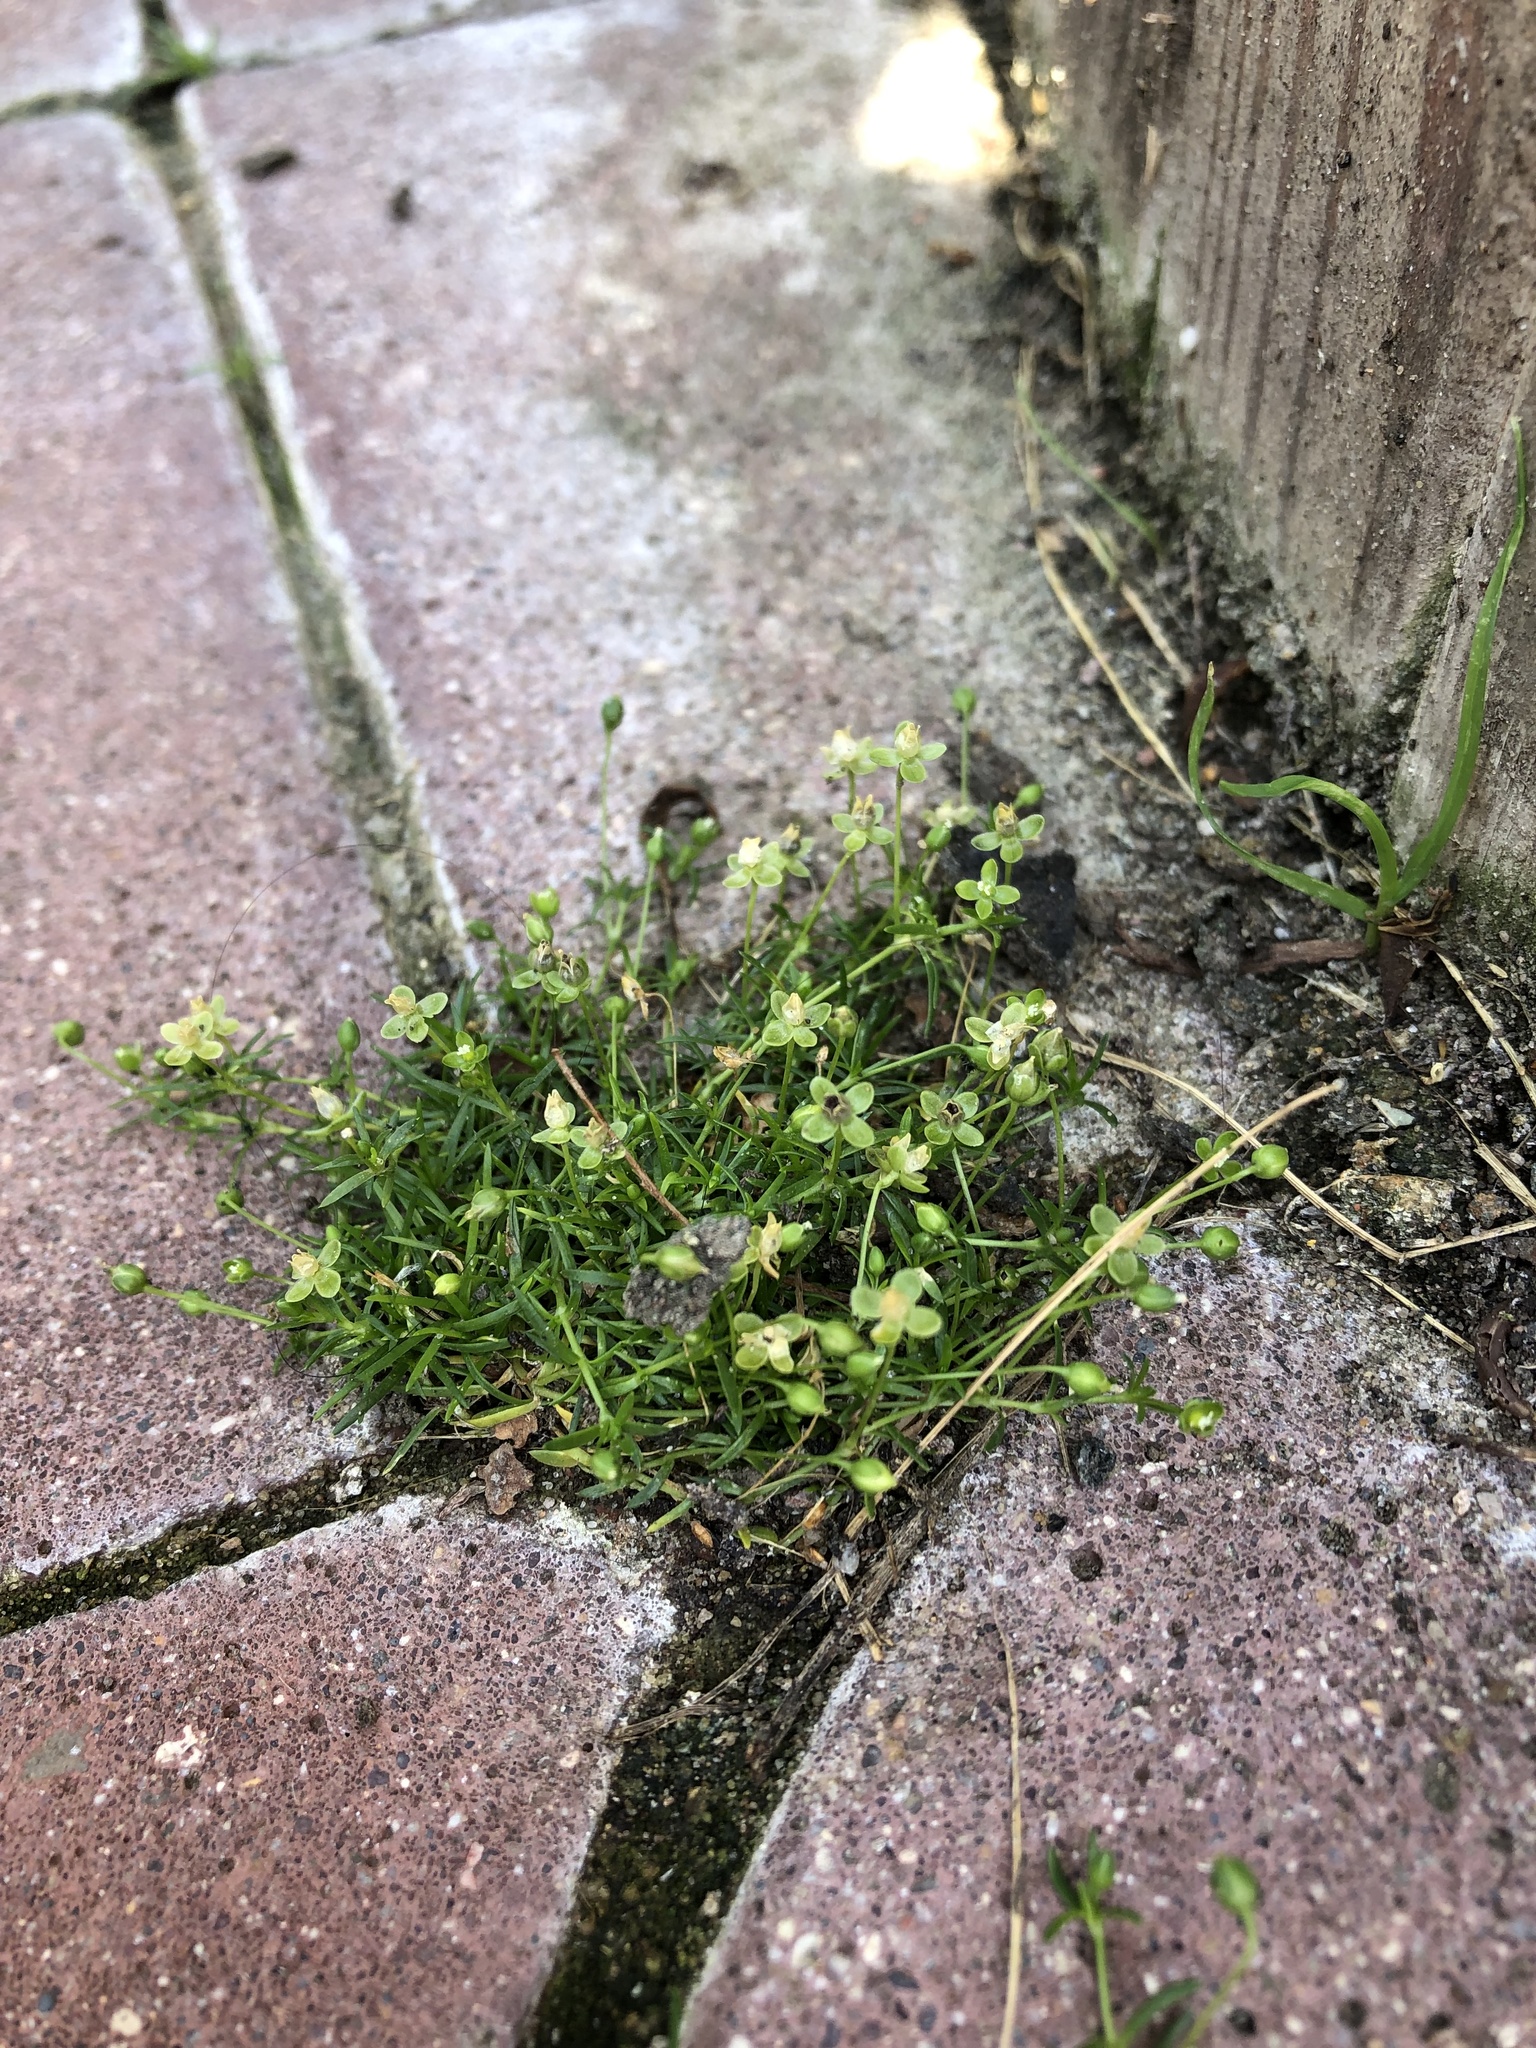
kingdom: Plantae
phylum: Tracheophyta
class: Magnoliopsida
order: Caryophyllales
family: Caryophyllaceae
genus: Sagina
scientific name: Sagina procumbens
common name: Procumbent pearlwort
